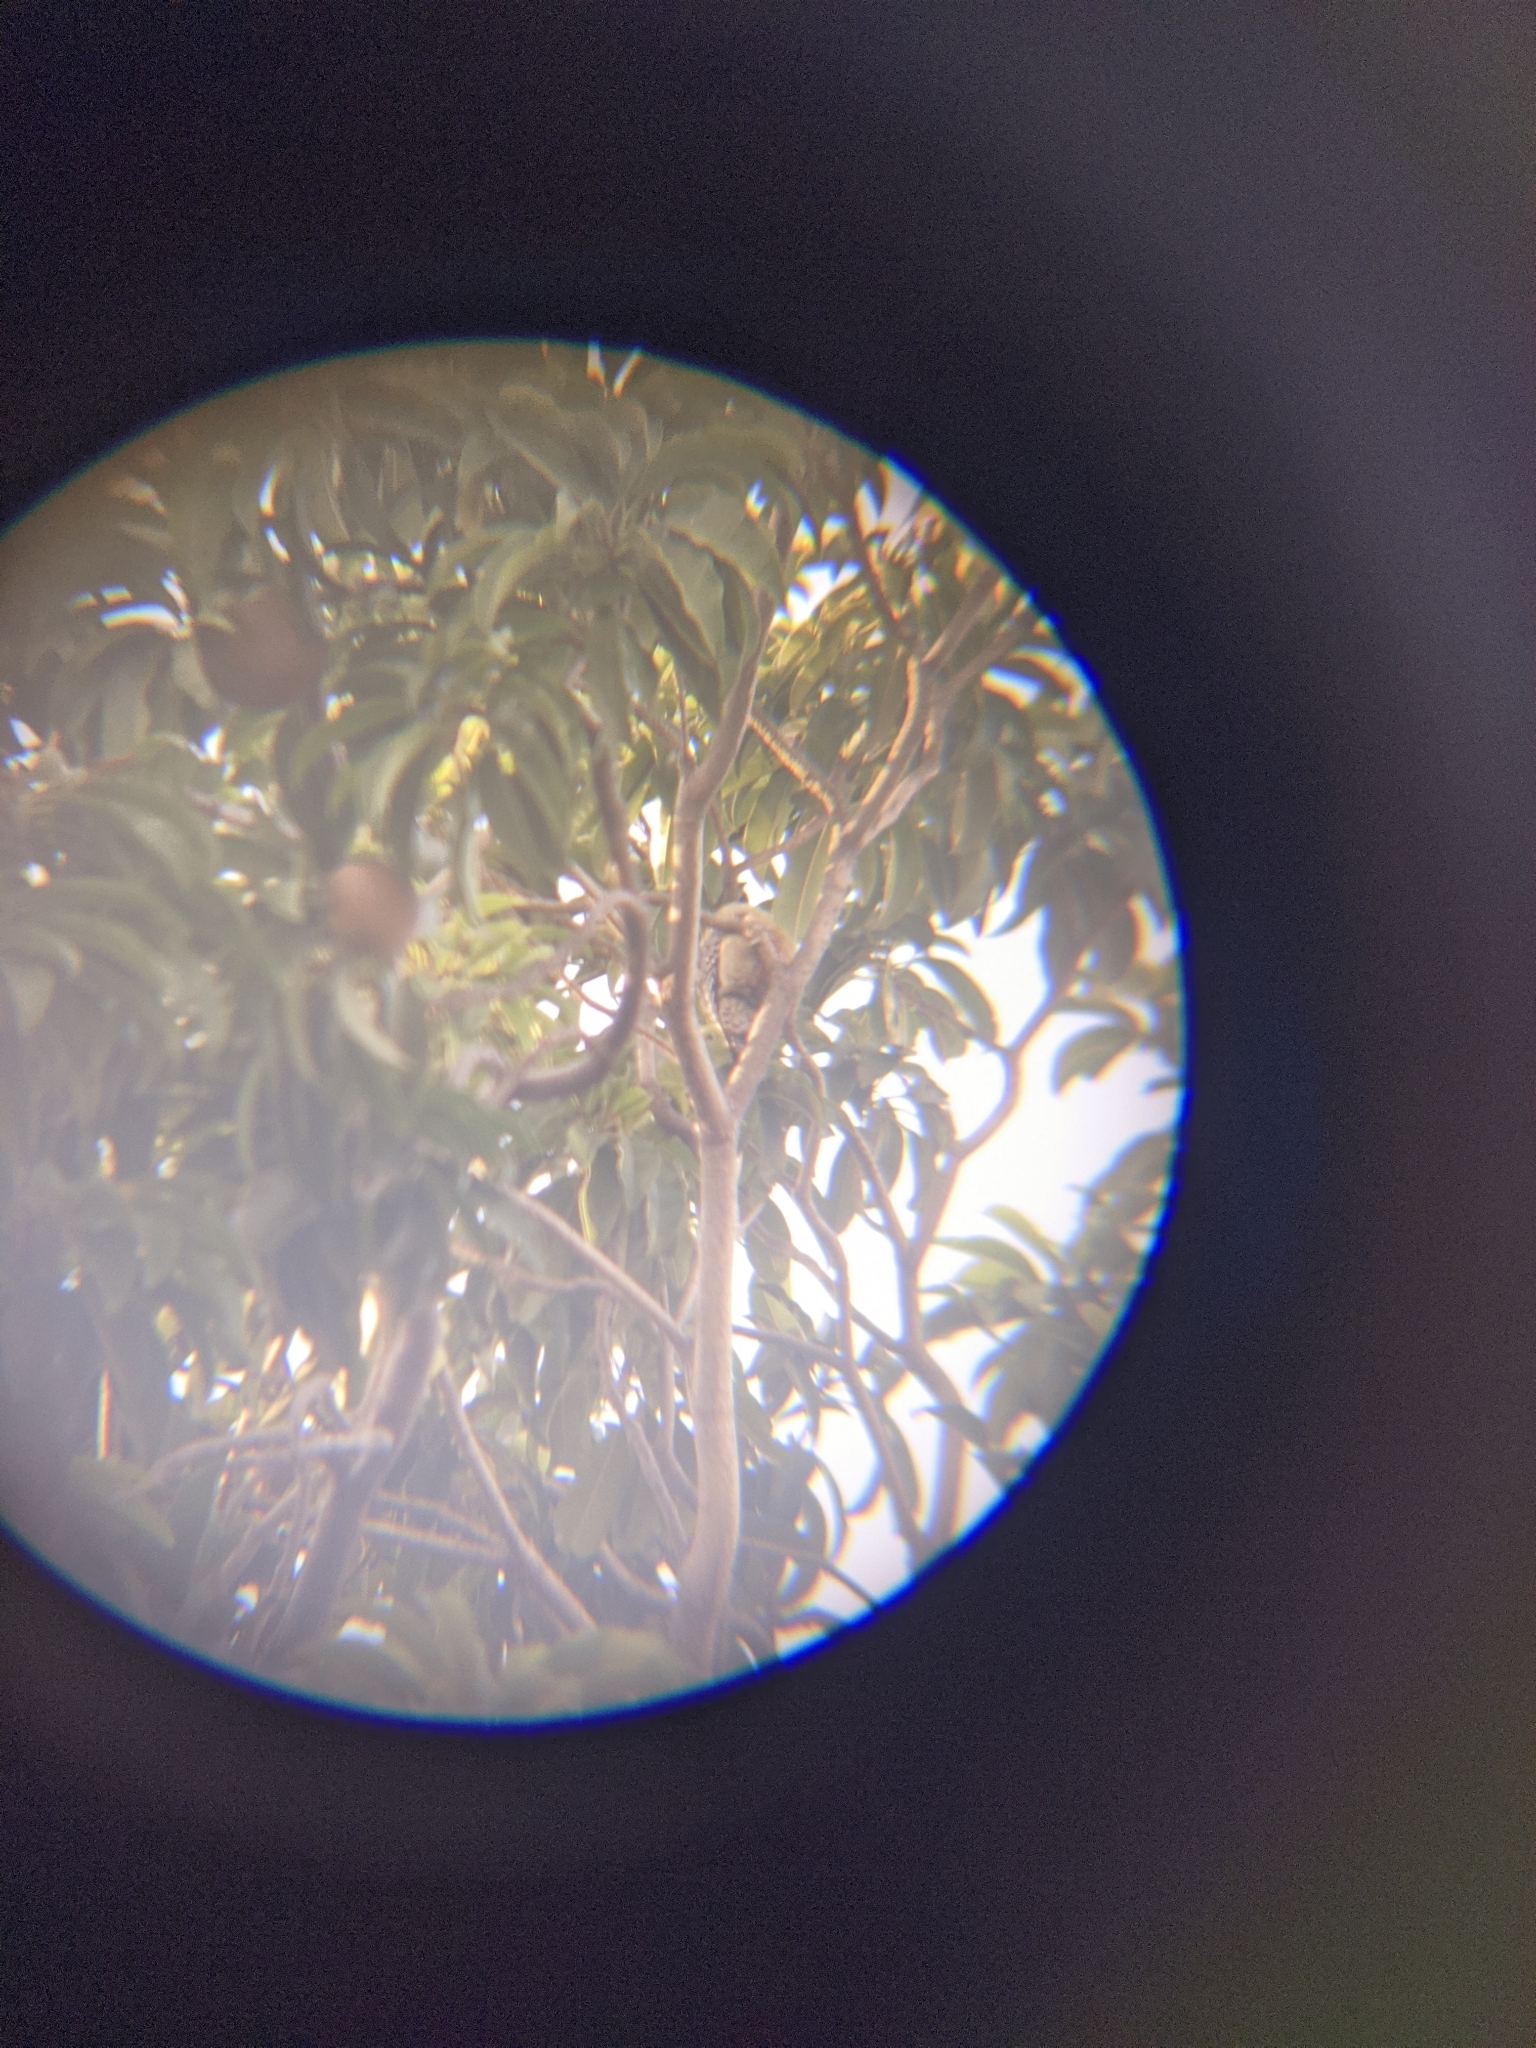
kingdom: Animalia
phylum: Chordata
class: Aves
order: Piciformes
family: Picidae
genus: Melanerpes
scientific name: Melanerpes rubricapillus
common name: Red-crowned woodpecker
